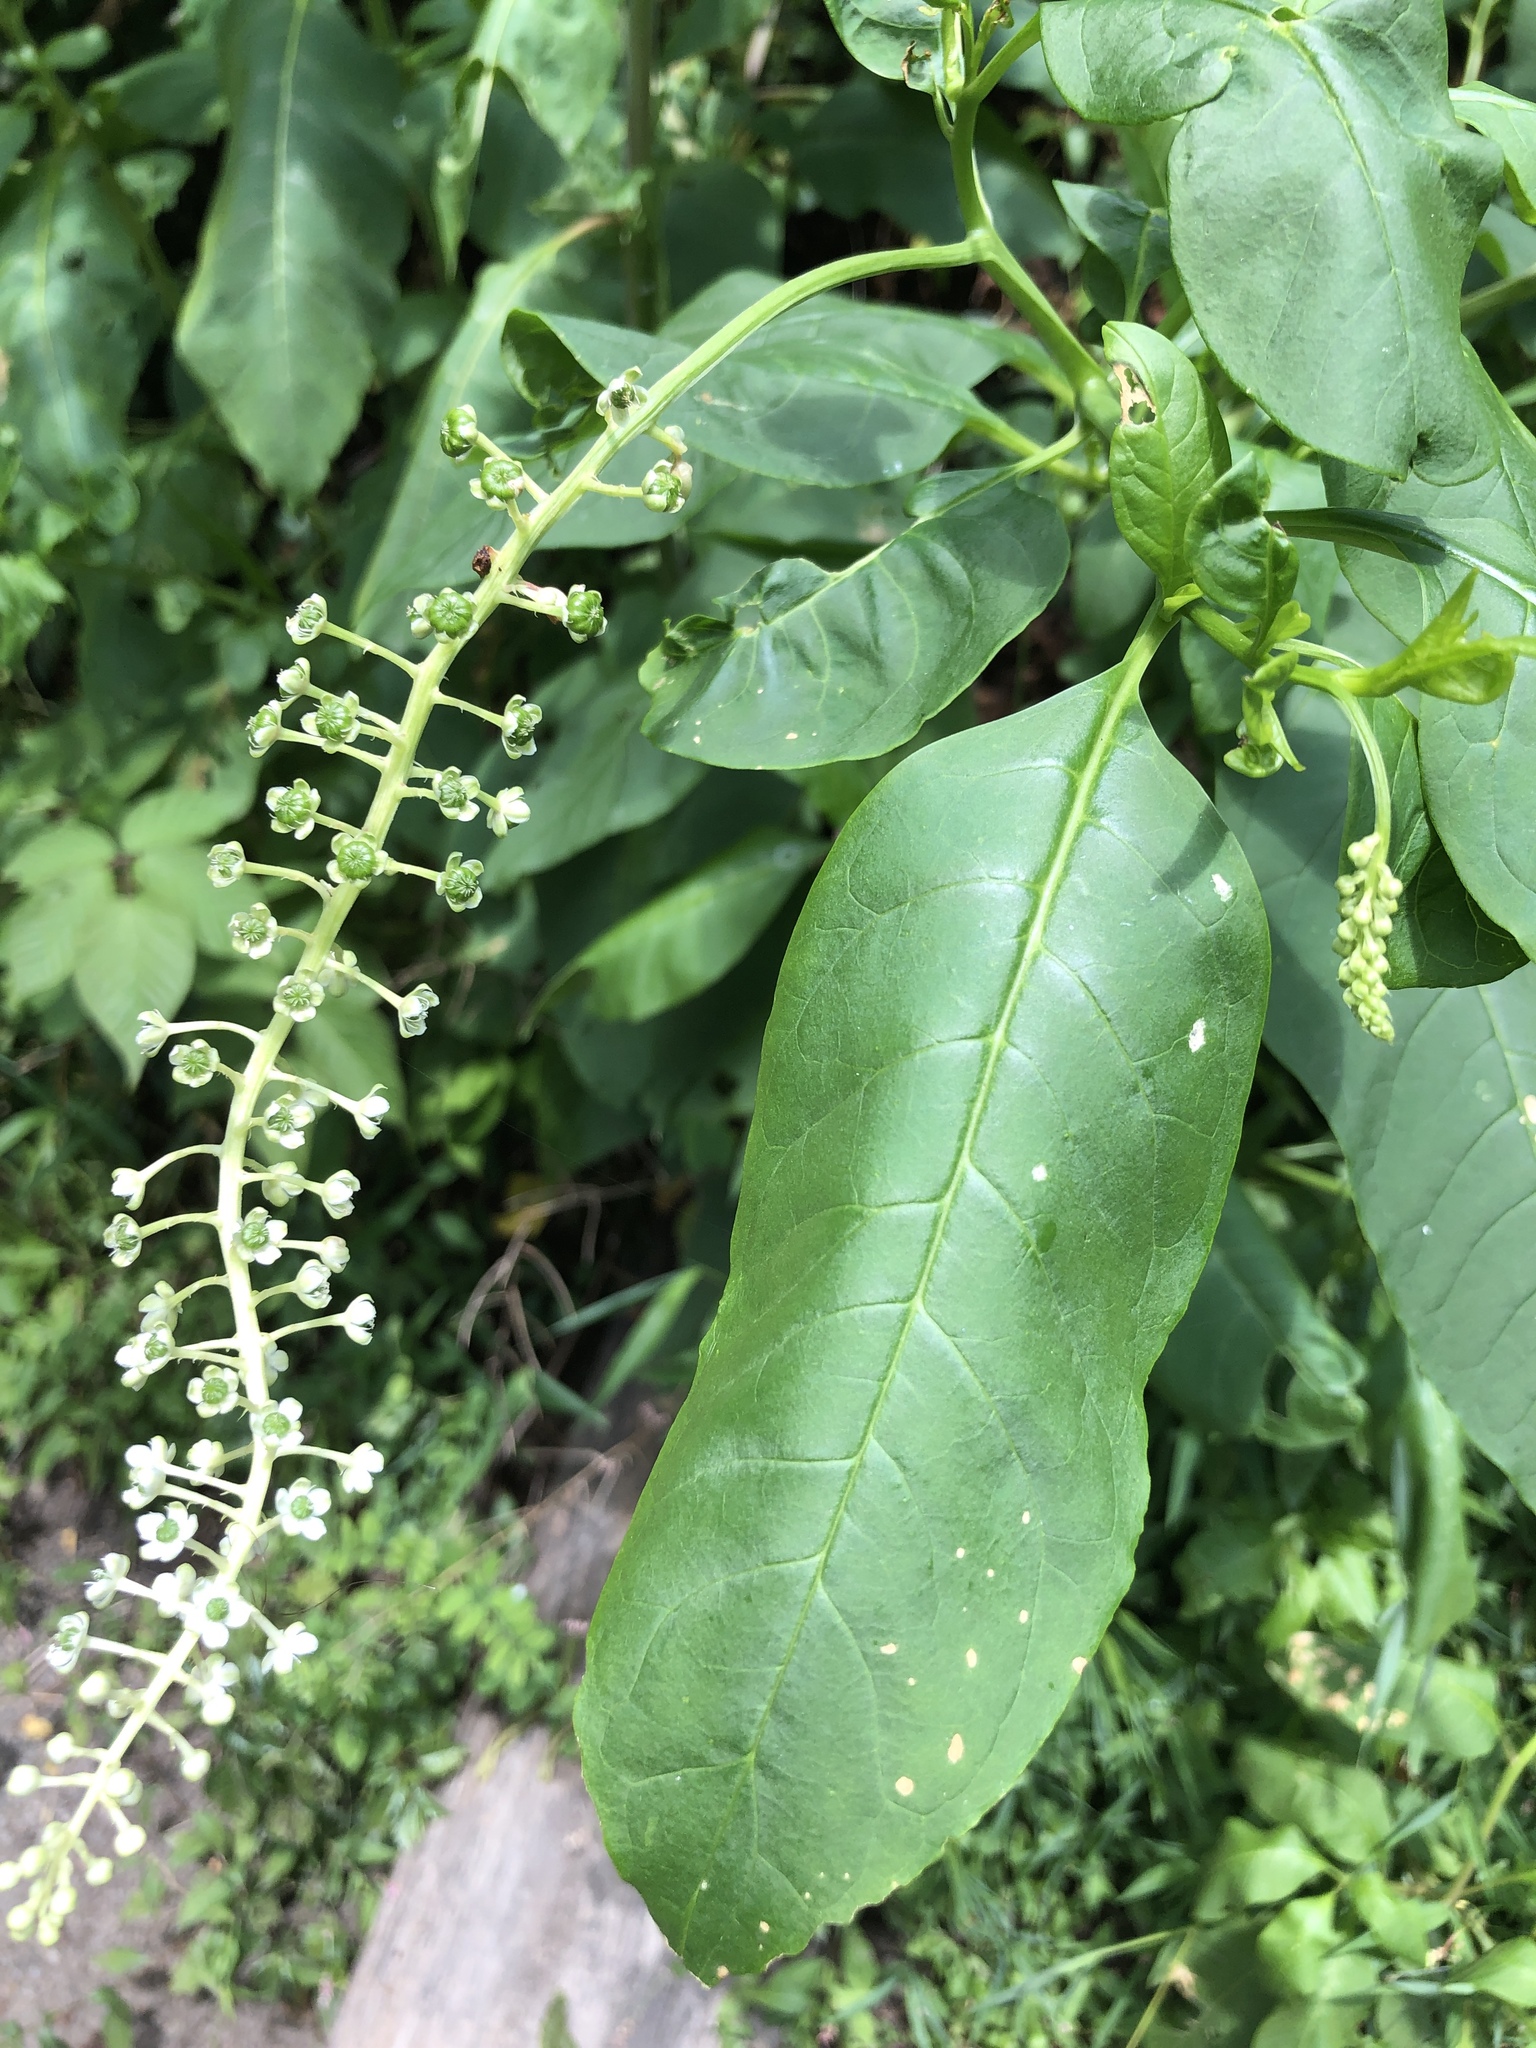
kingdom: Plantae
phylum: Tracheophyta
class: Magnoliopsida
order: Caryophyllales
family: Phytolaccaceae
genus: Phytolacca
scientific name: Phytolacca americana
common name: American pokeweed
